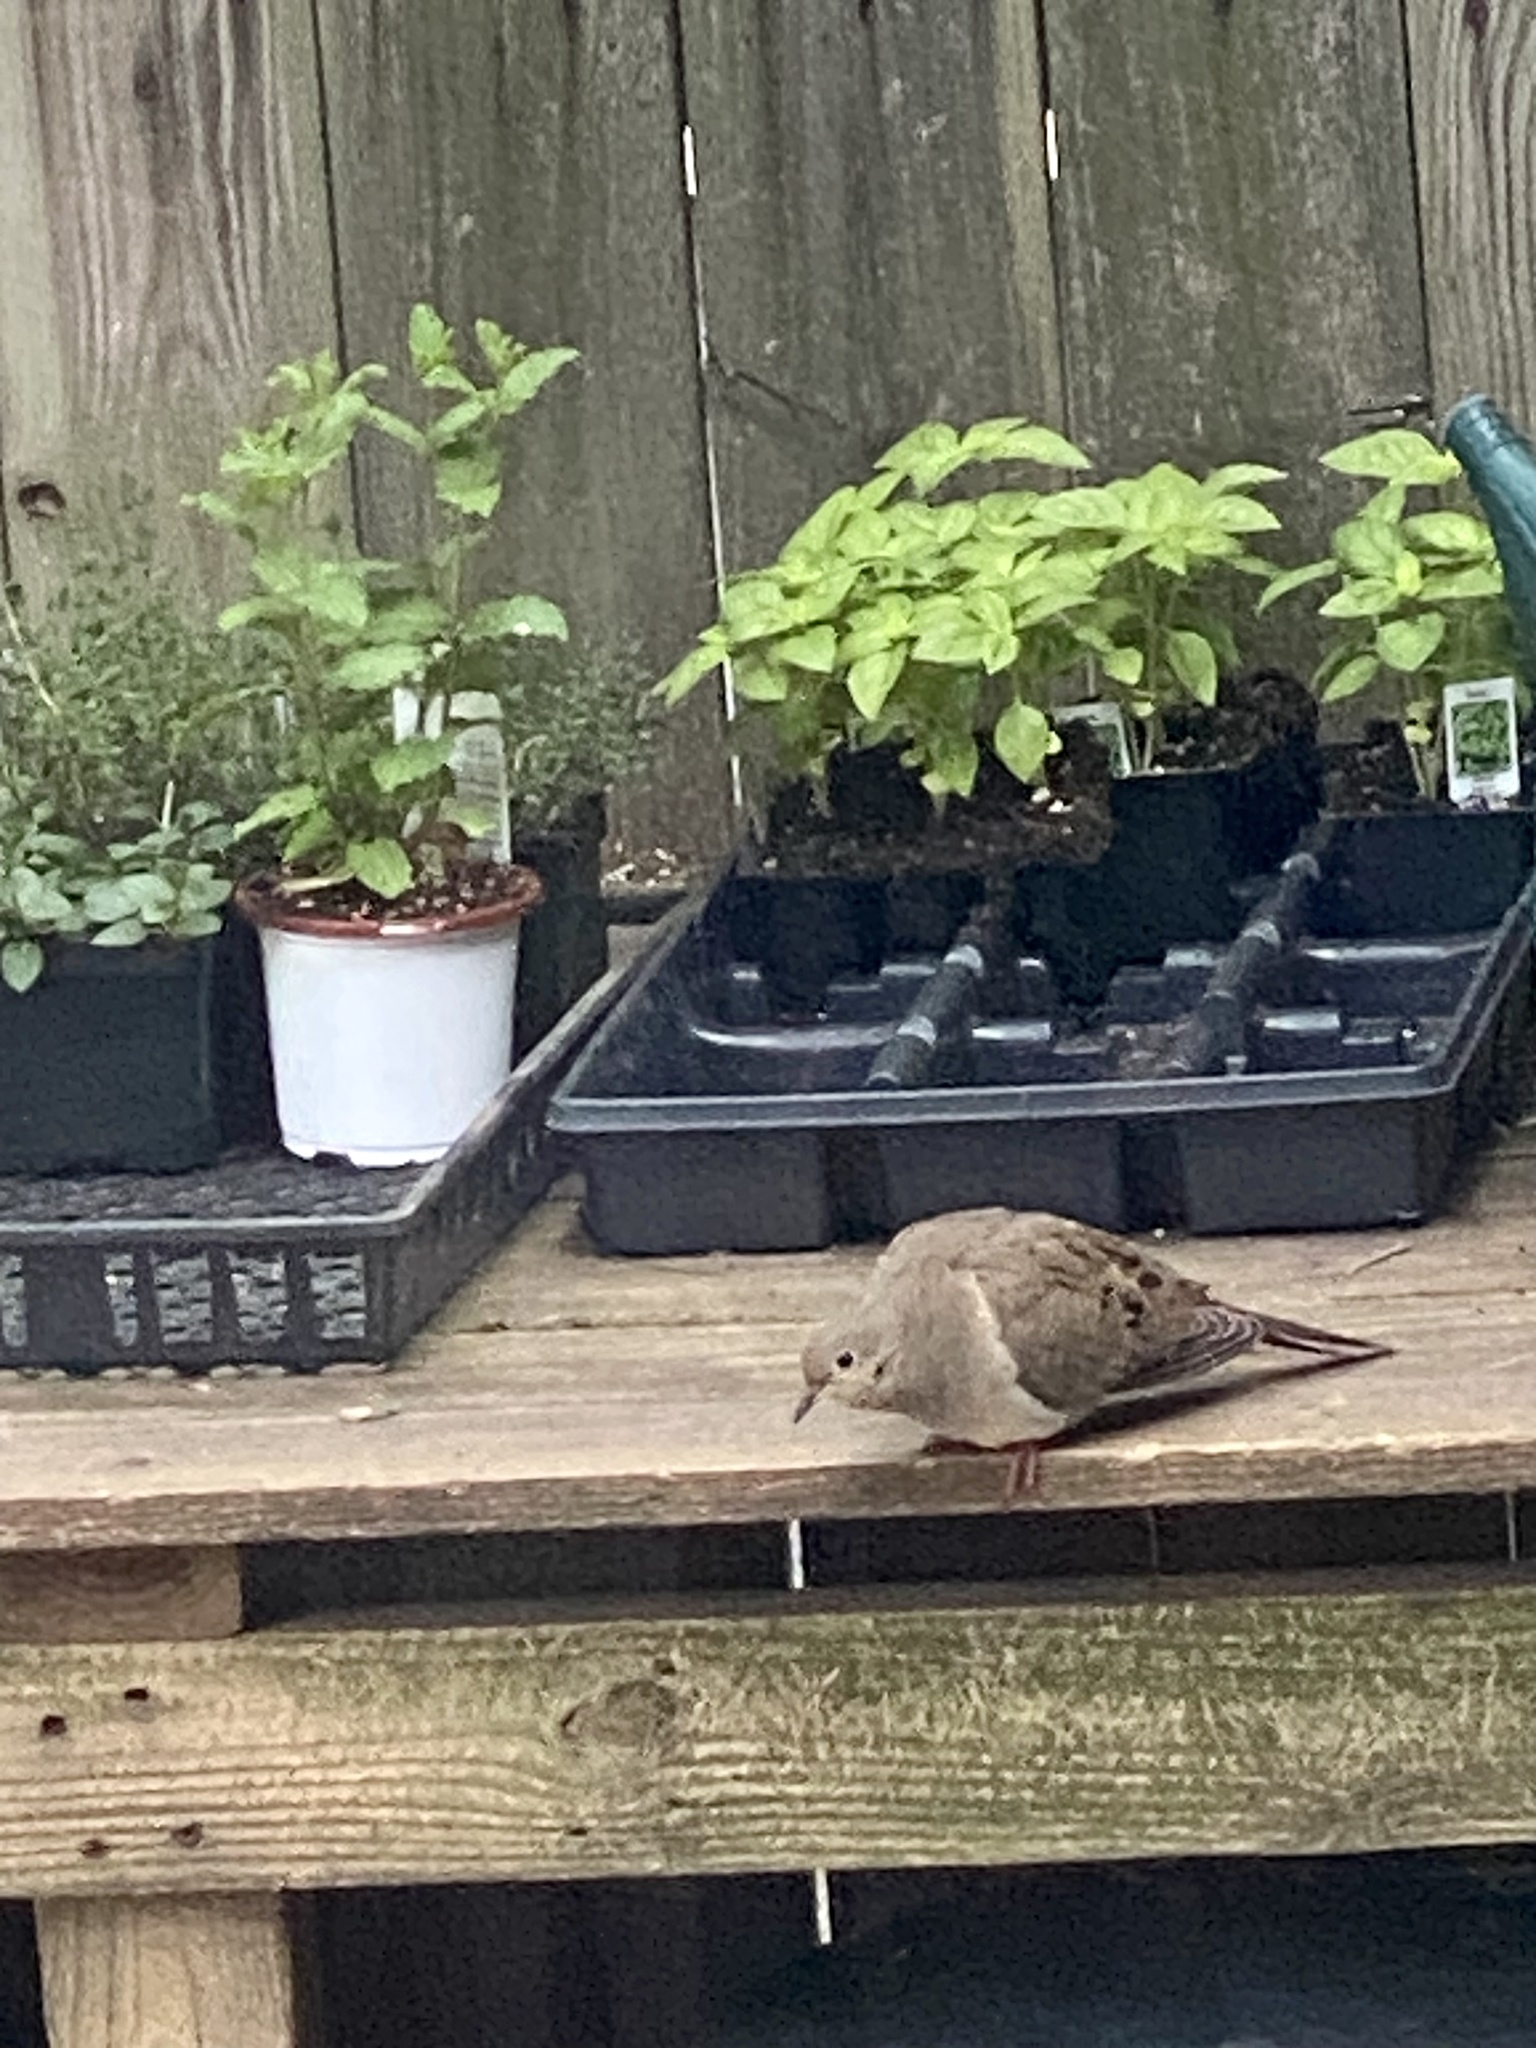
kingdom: Animalia
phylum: Chordata
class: Aves
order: Columbiformes
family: Columbidae
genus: Zenaida
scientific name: Zenaida macroura
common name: Mourning dove
